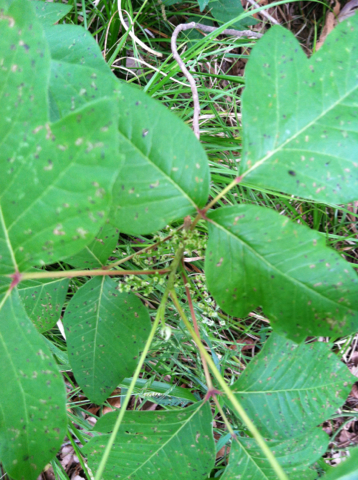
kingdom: Plantae
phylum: Tracheophyta
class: Magnoliopsida
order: Sapindales
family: Anacardiaceae
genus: Toxicodendron
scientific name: Toxicodendron radicans
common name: Poison ivy
